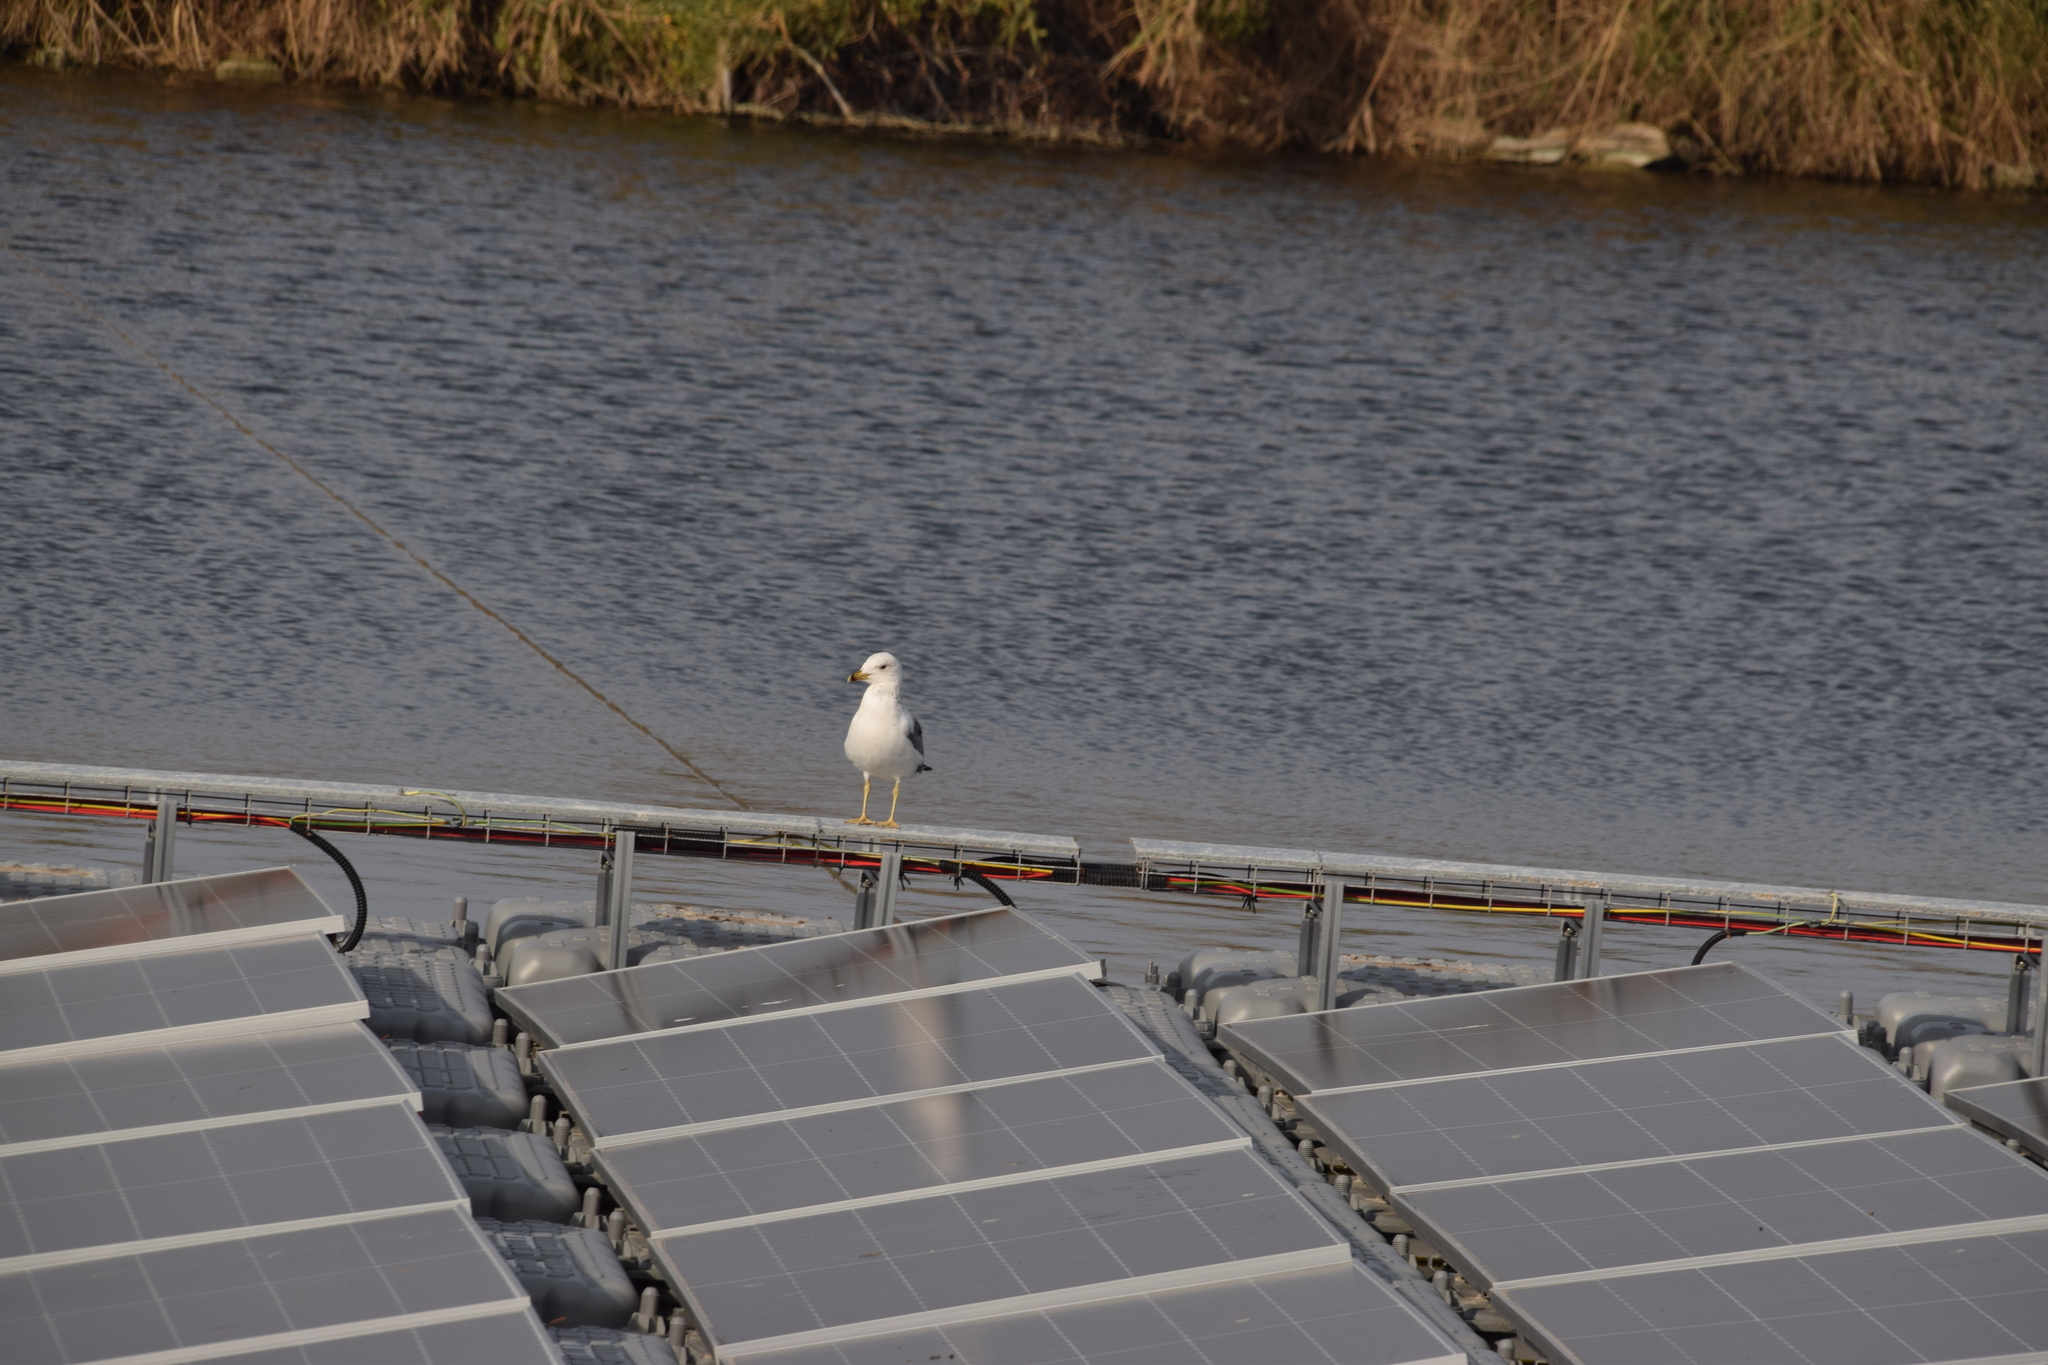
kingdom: Animalia
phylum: Chordata
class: Aves
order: Charadriiformes
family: Laridae
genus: Larus
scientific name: Larus armenicus
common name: Armenian gull
